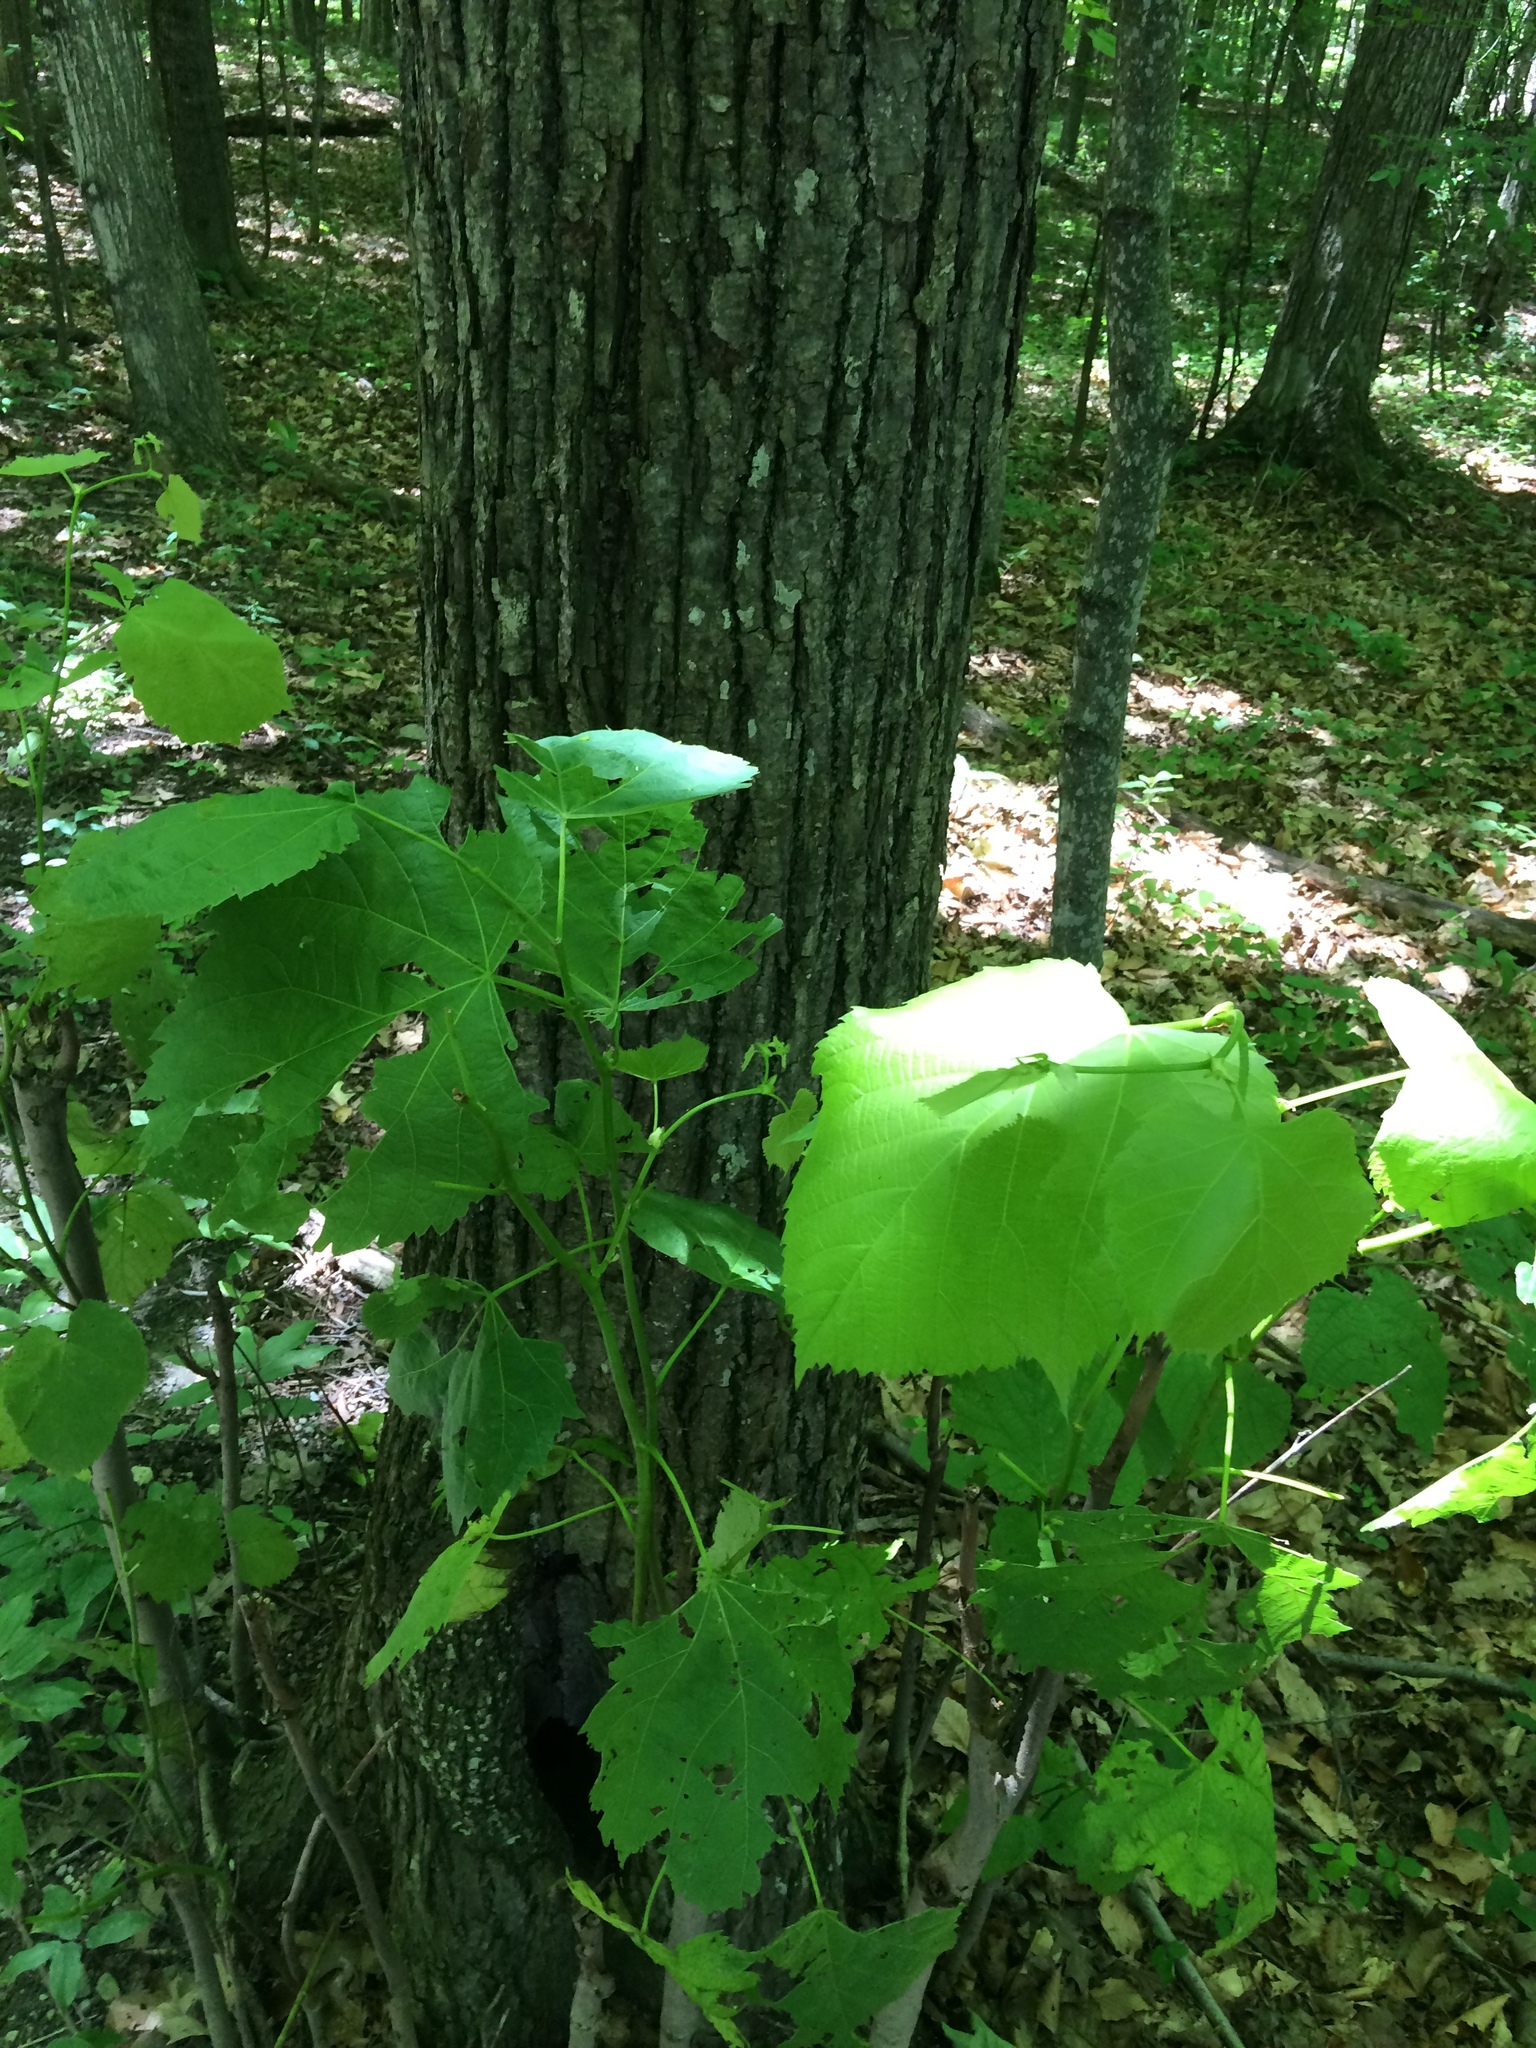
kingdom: Plantae
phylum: Tracheophyta
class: Magnoliopsida
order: Malvales
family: Malvaceae
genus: Tilia
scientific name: Tilia americana
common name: Basswood
